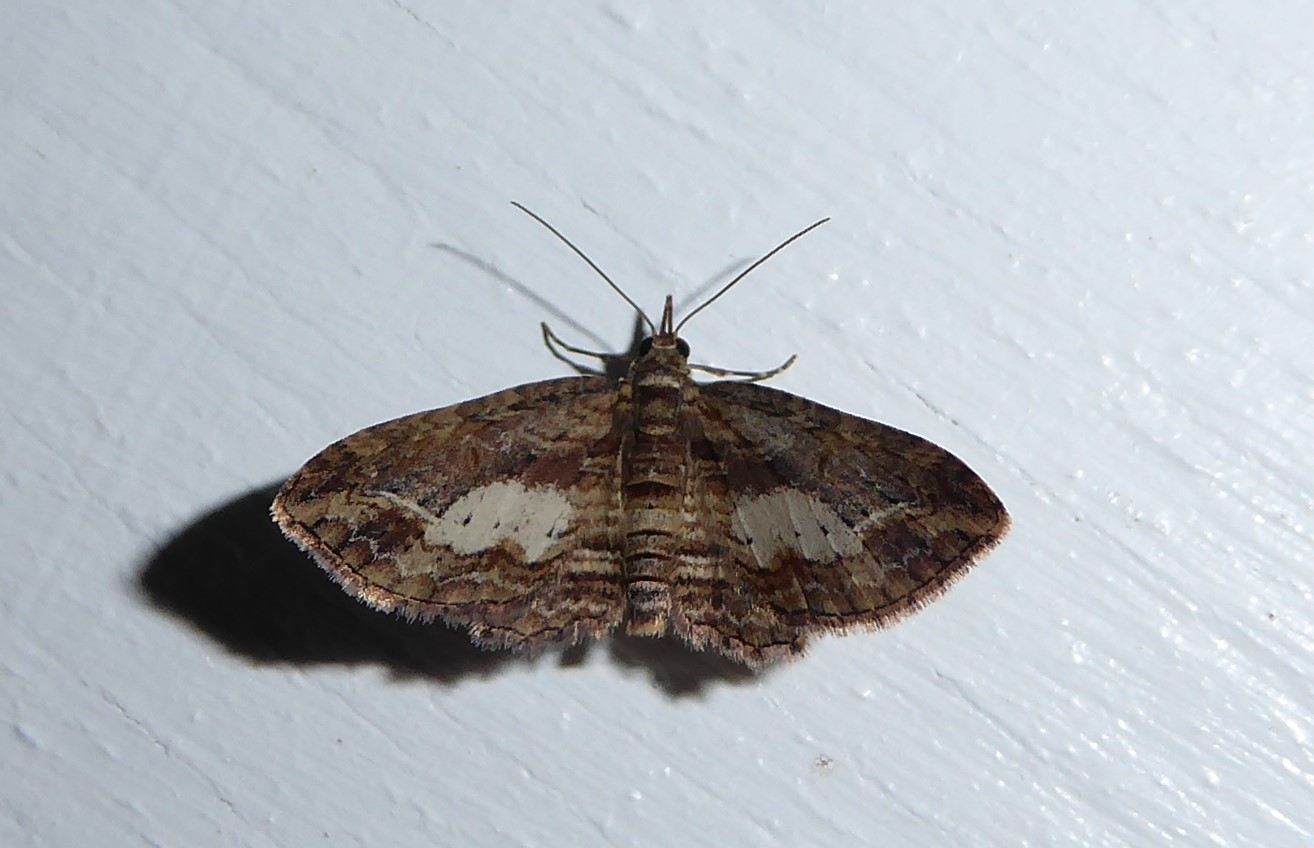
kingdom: Animalia
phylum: Arthropoda
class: Insecta
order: Lepidoptera
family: Geometridae
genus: Chloroclystis
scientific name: Chloroclystis filata
